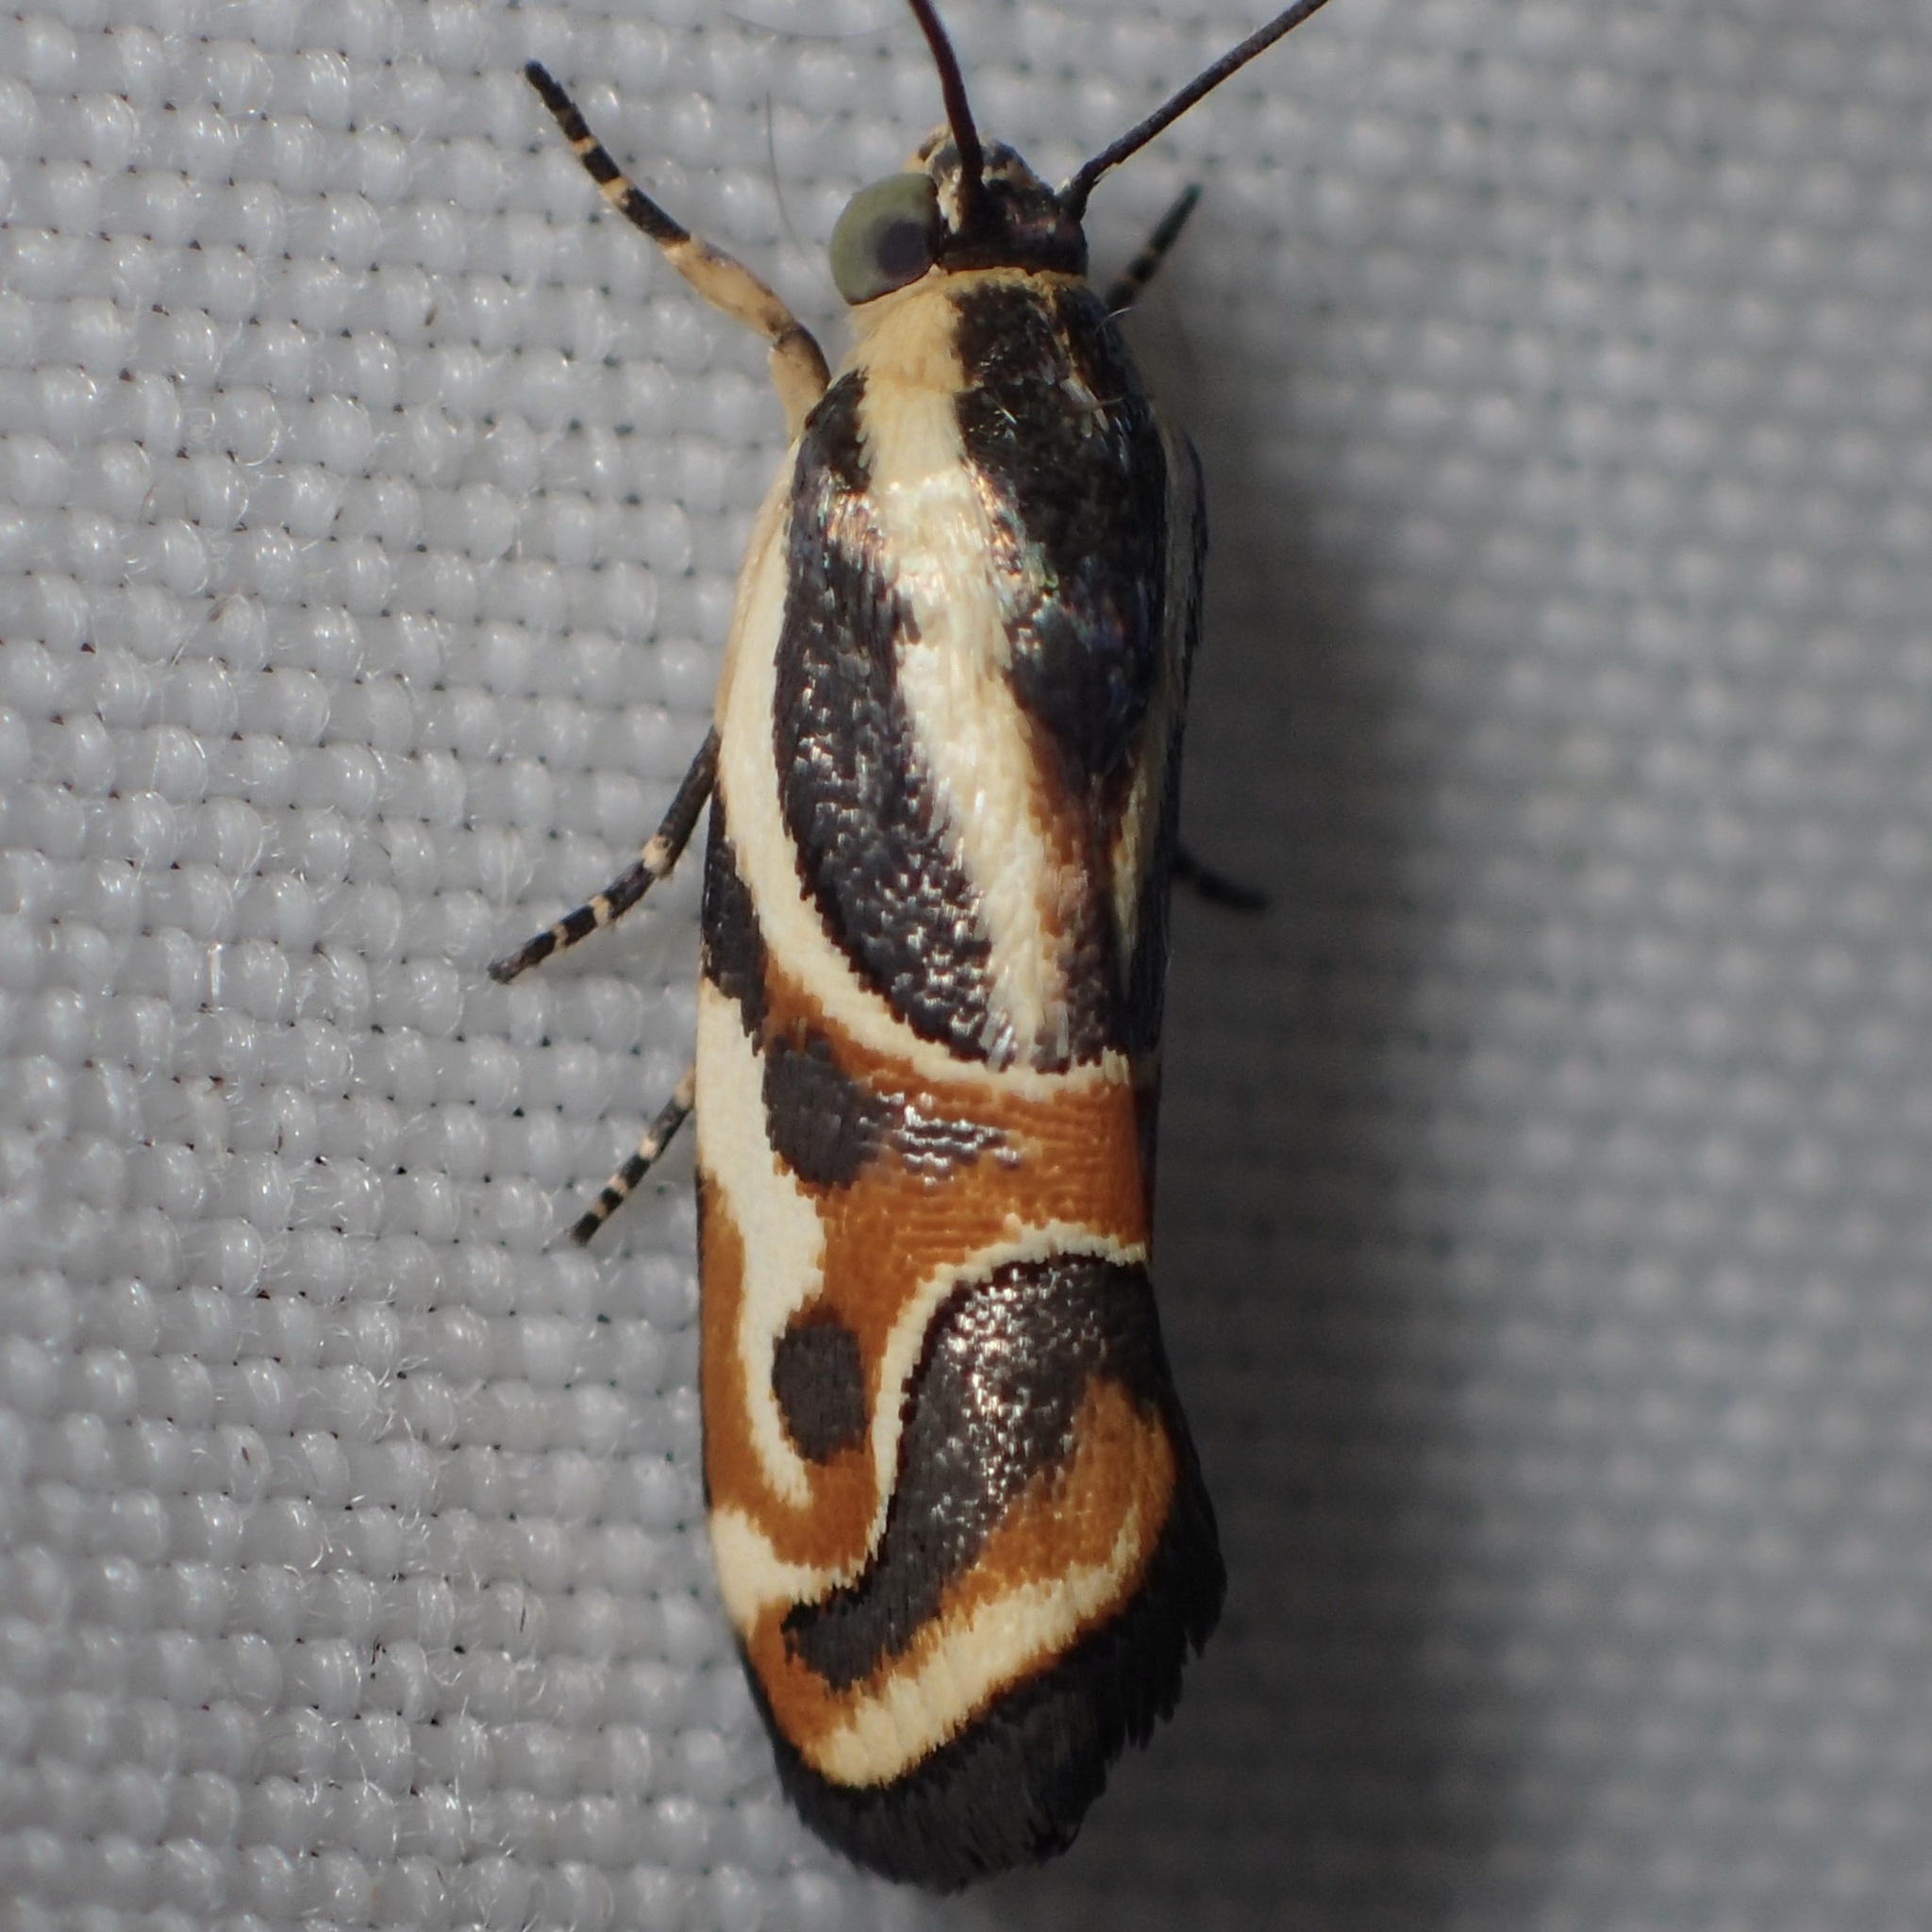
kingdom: Animalia
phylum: Arthropoda
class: Insecta
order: Lepidoptera
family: Noctuidae
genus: Spragueia
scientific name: Spragueia magnifica
